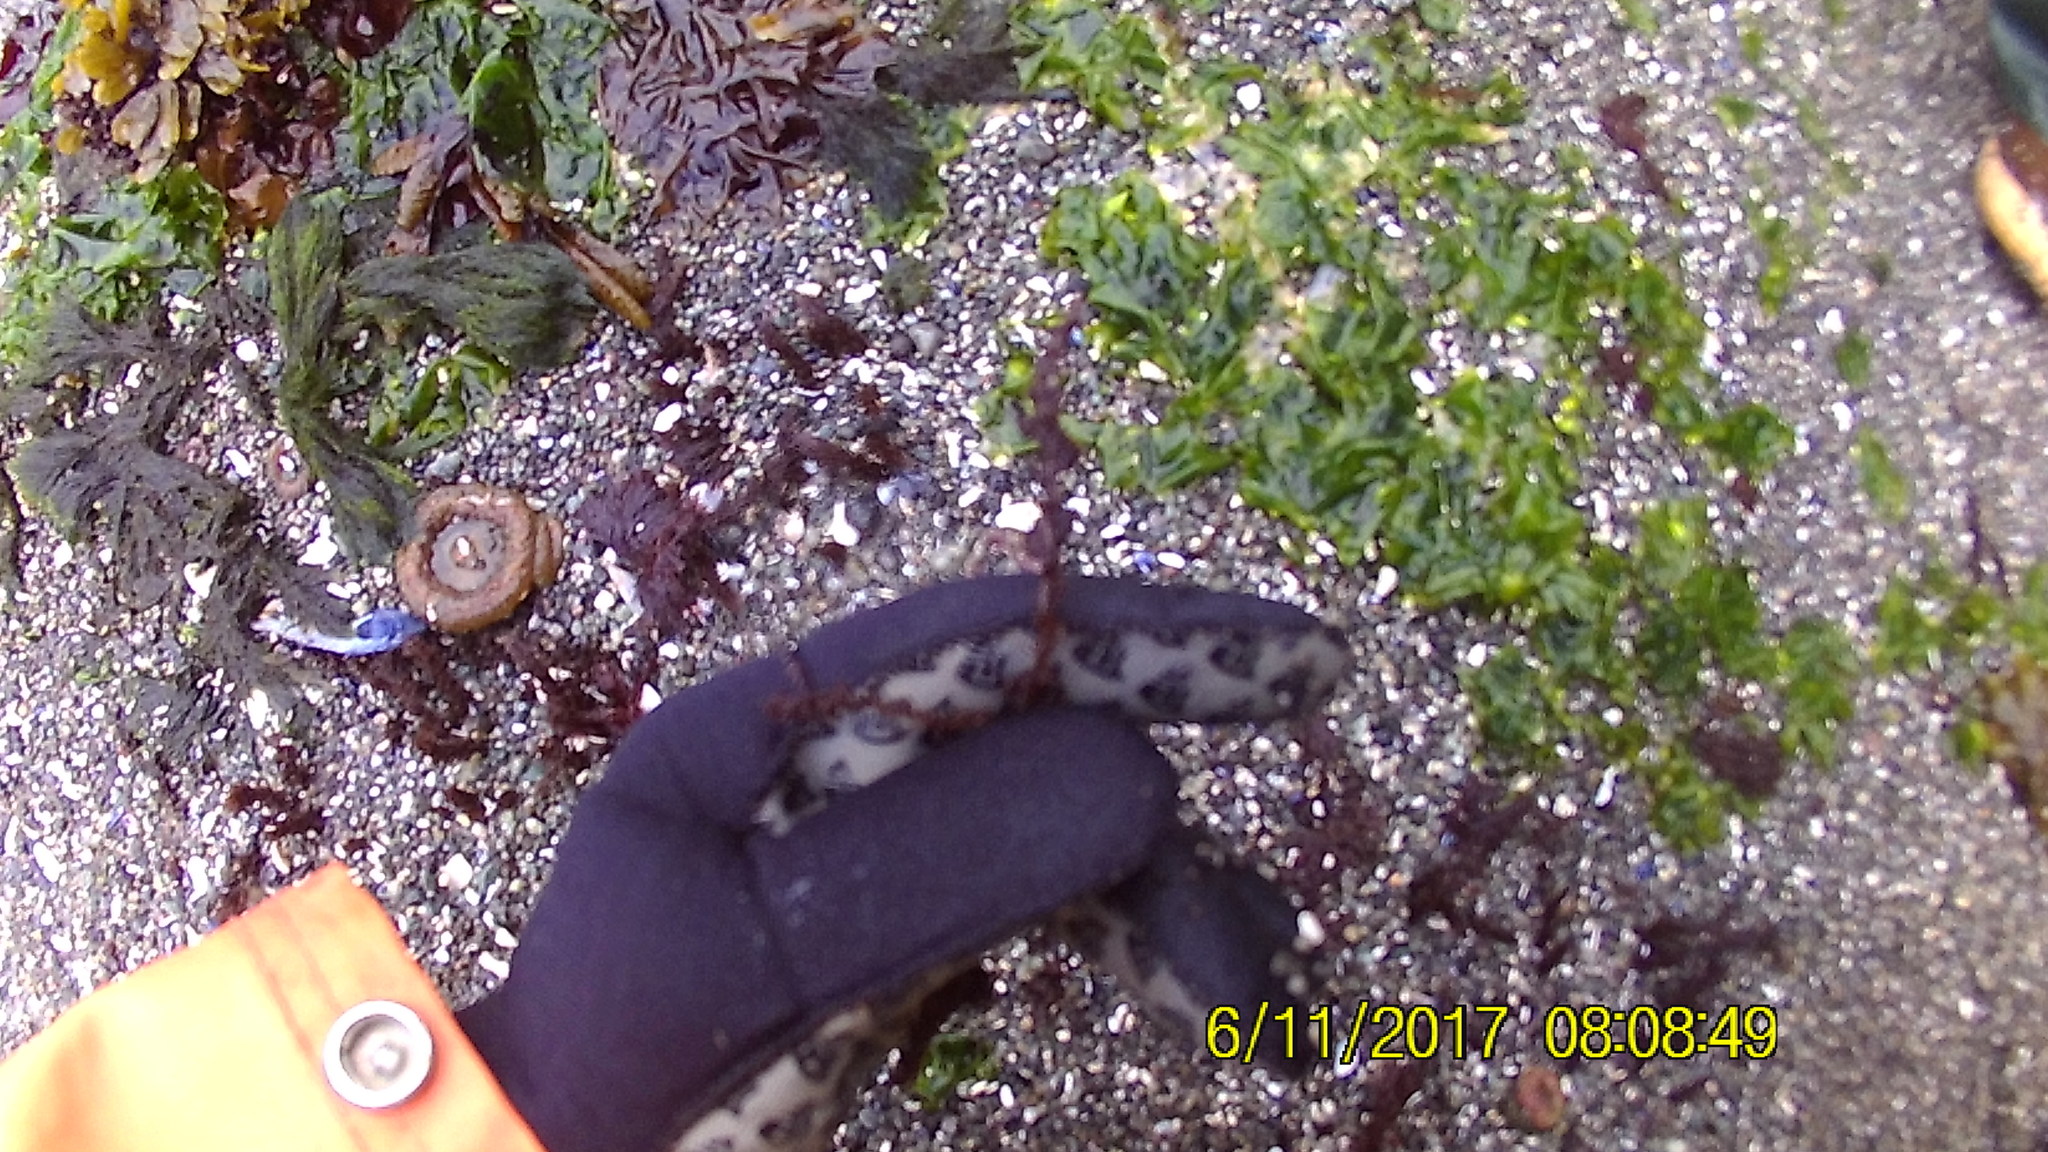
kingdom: Plantae
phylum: Rhodophyta
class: Florideophyceae
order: Ceramiales
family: Rhodomelaceae
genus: Neorhodomela
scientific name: Neorhodomela larix
